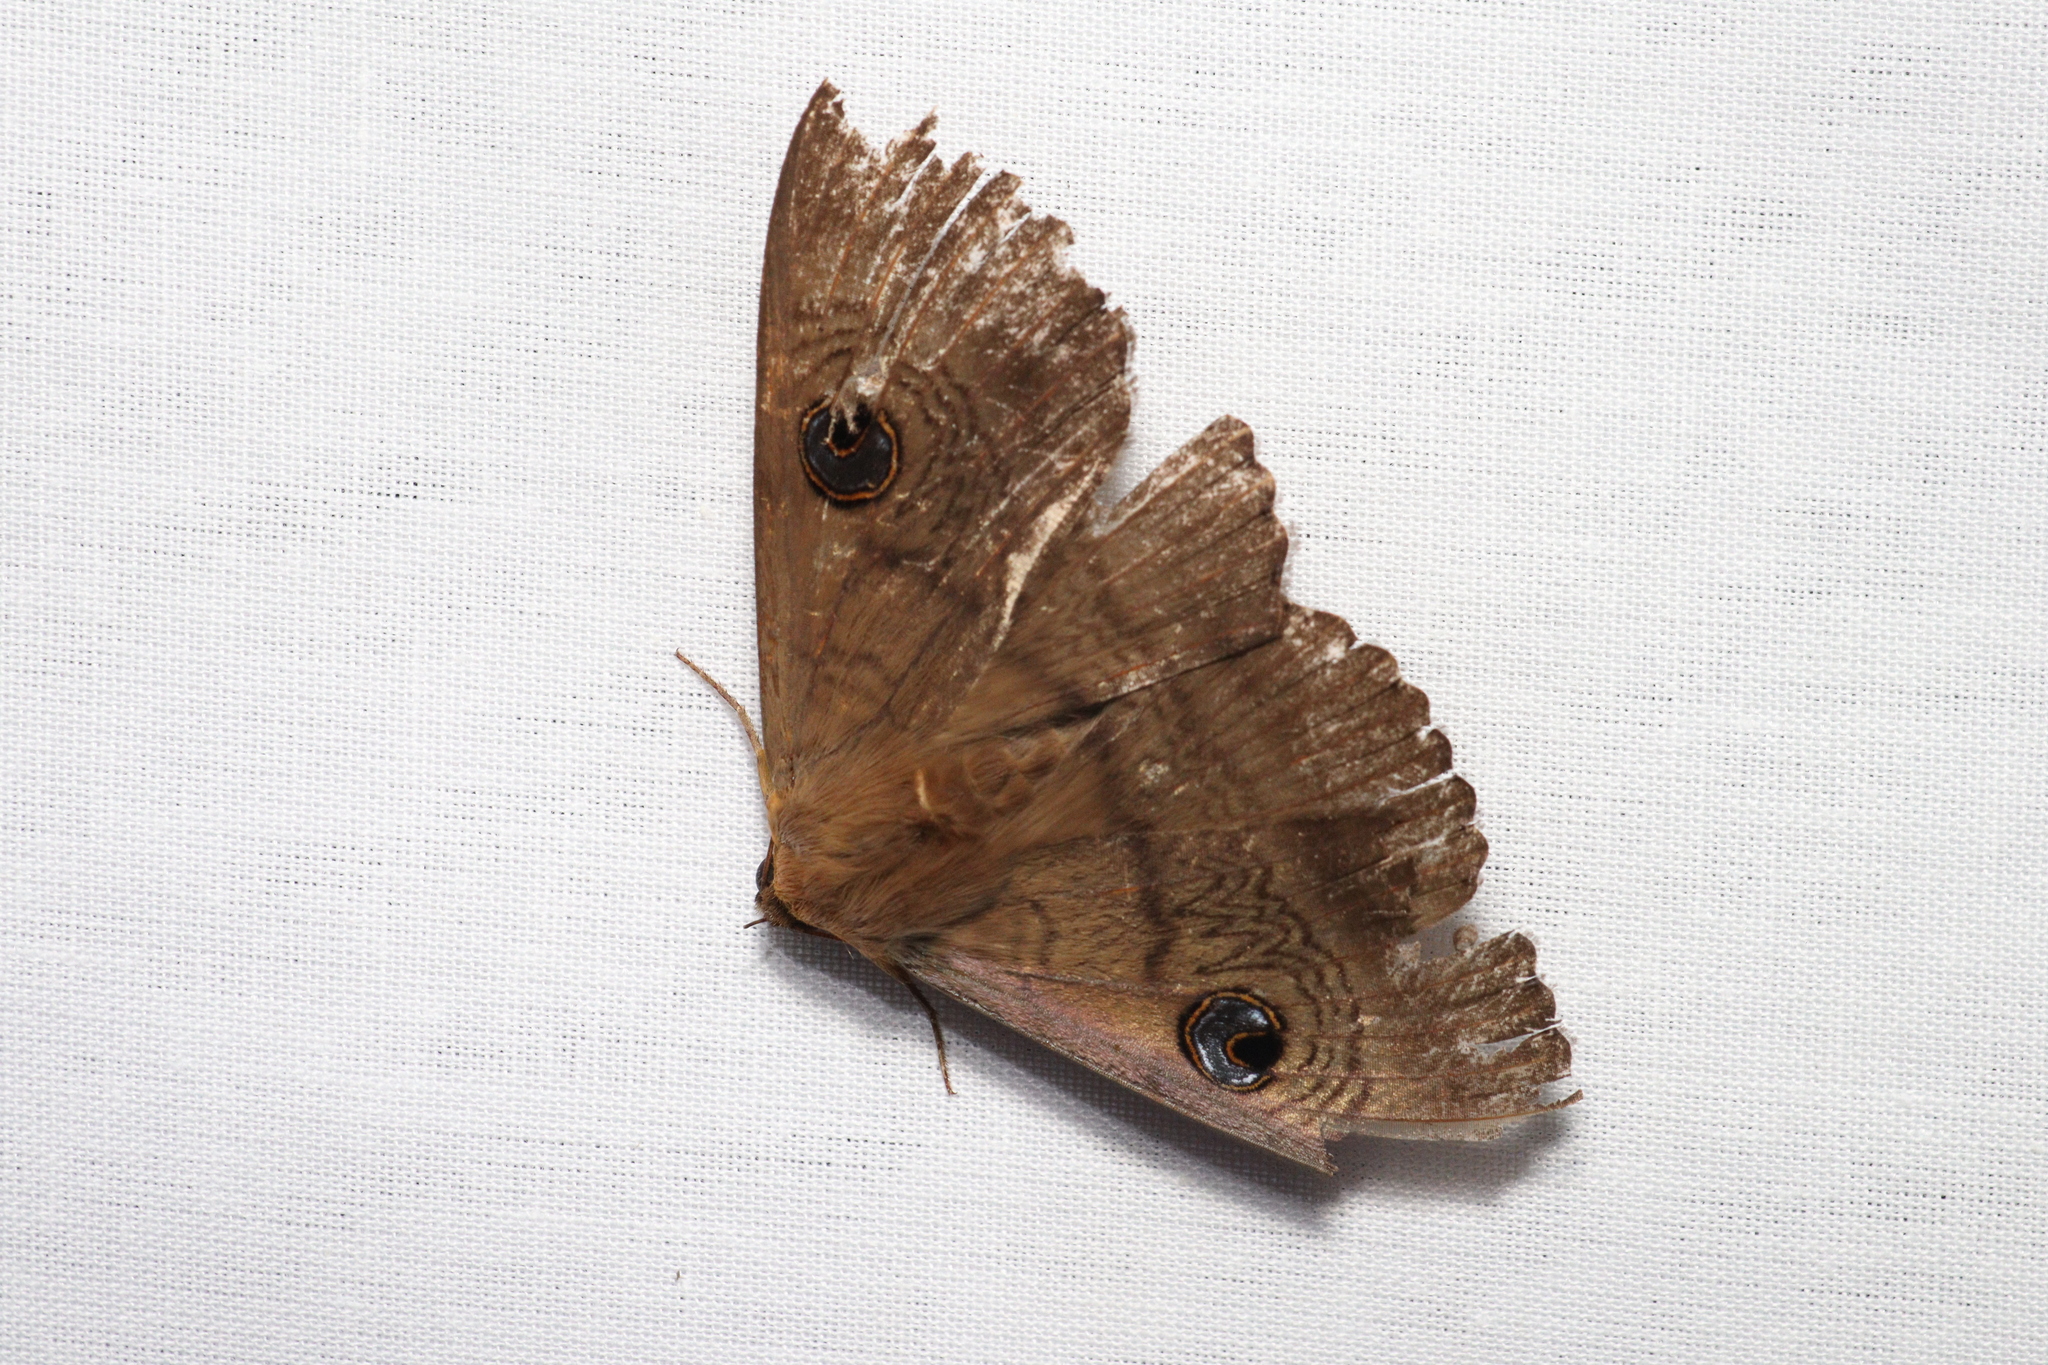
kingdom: Animalia
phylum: Arthropoda
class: Insecta
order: Lepidoptera
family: Erebidae
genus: Dasypodia
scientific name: Dasypodia selenophora
